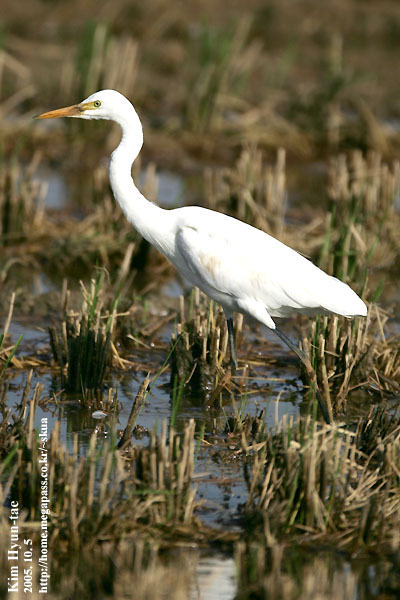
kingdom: Animalia
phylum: Chordata
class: Aves
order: Pelecaniformes
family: Ardeidae
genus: Egretta
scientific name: Egretta intermedia
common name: Intermediate egret
